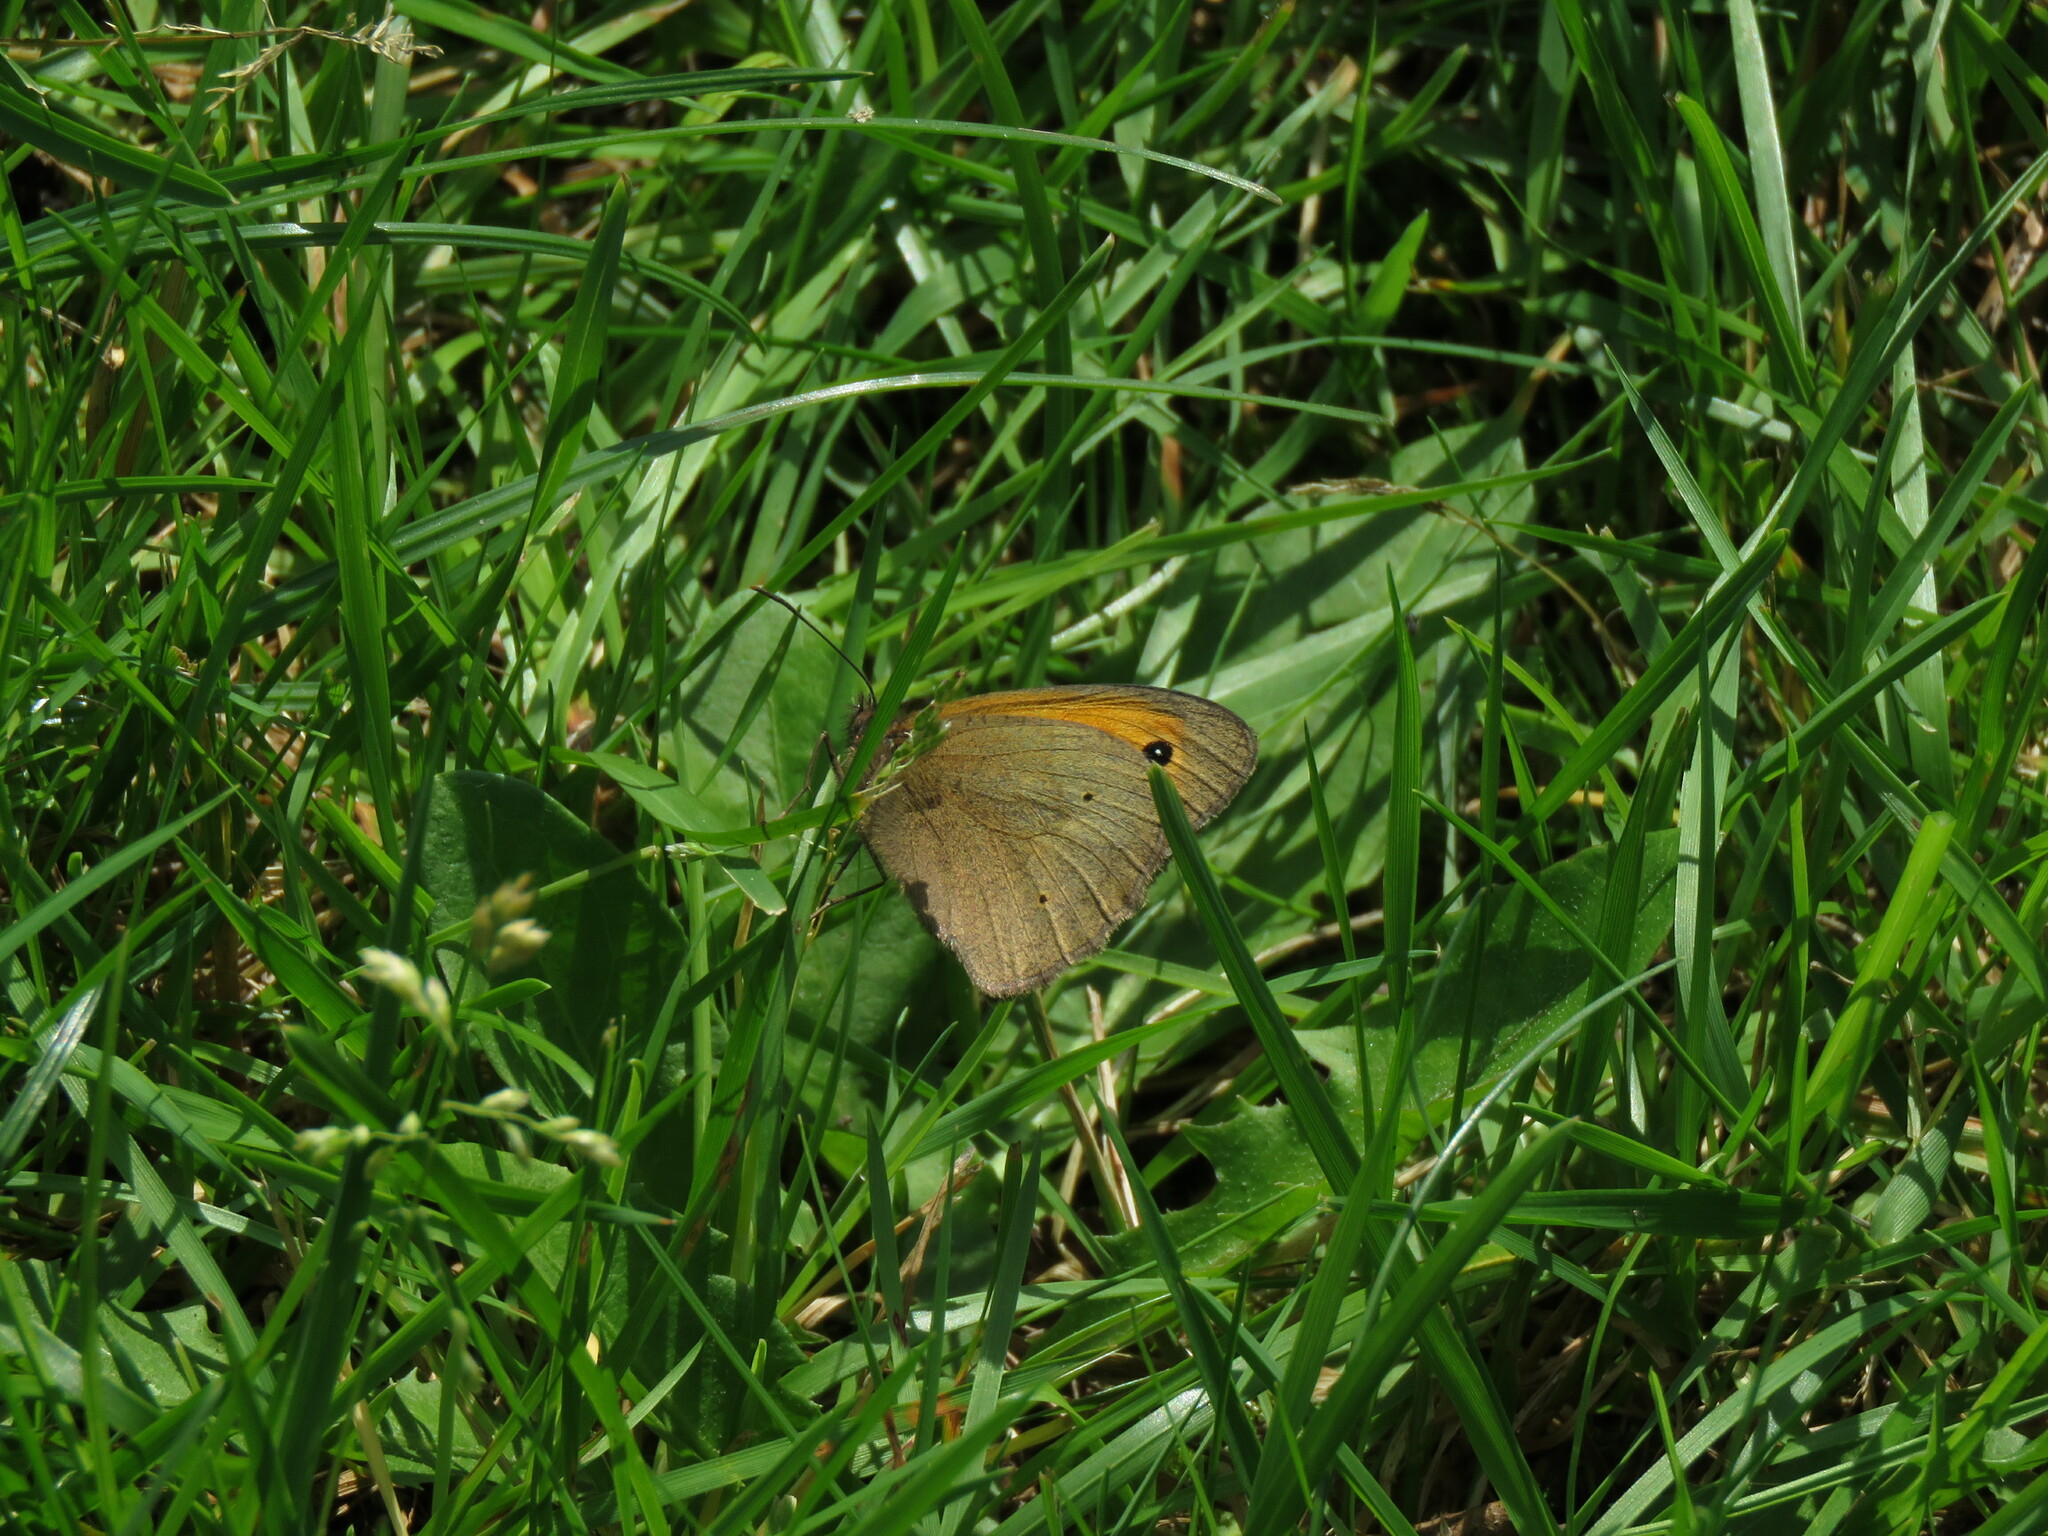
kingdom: Animalia
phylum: Arthropoda
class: Insecta
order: Lepidoptera
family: Nymphalidae
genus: Maniola
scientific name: Maniola jurtina
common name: Meadow brown
